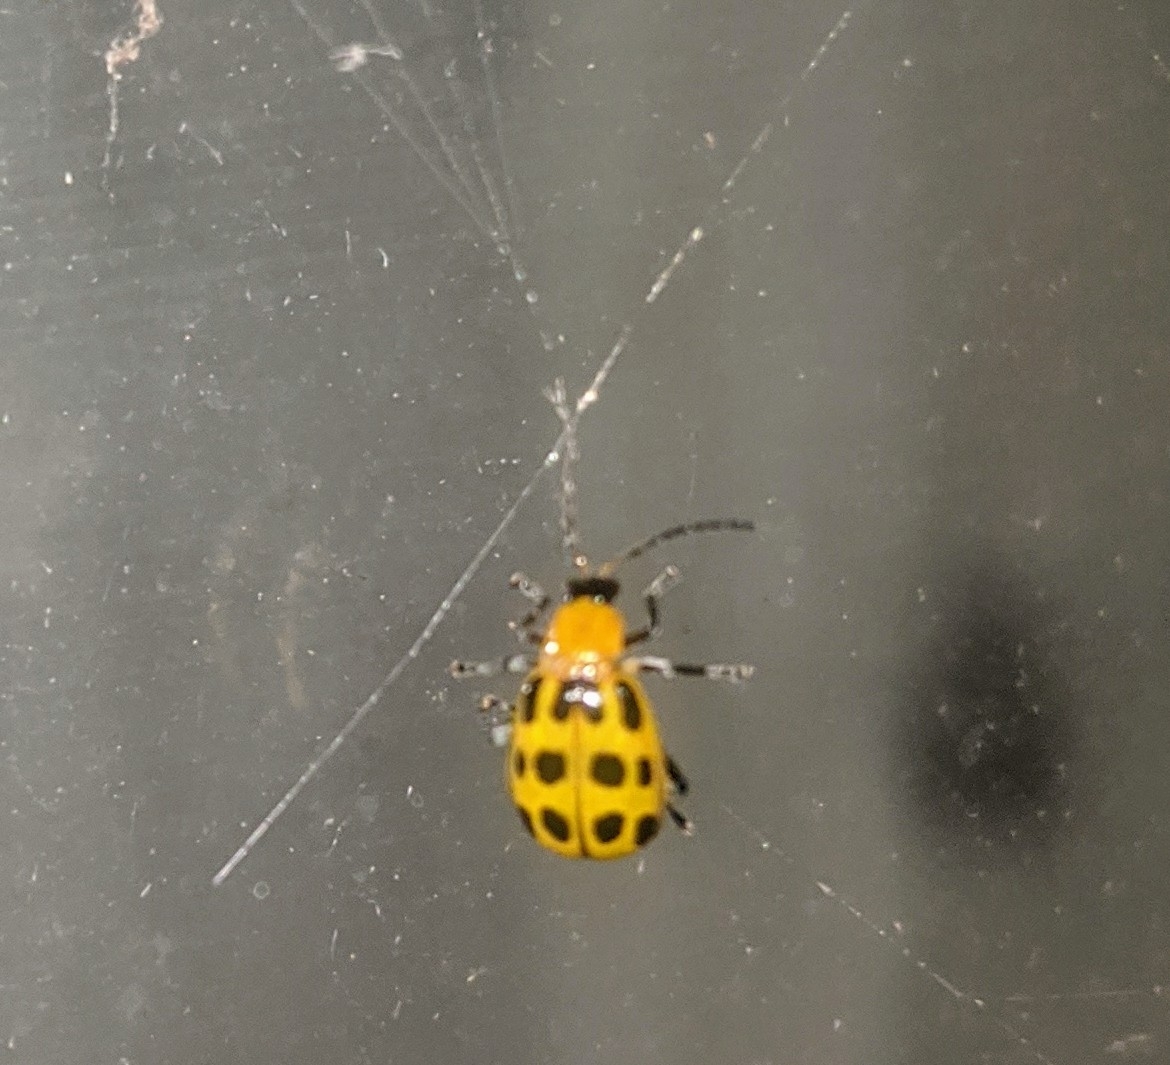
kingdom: Animalia
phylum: Arthropoda
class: Insecta
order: Coleoptera
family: Chrysomelidae
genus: Diabrotica
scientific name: Diabrotica undecimpunctata
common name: Spotted cucumber beetle
